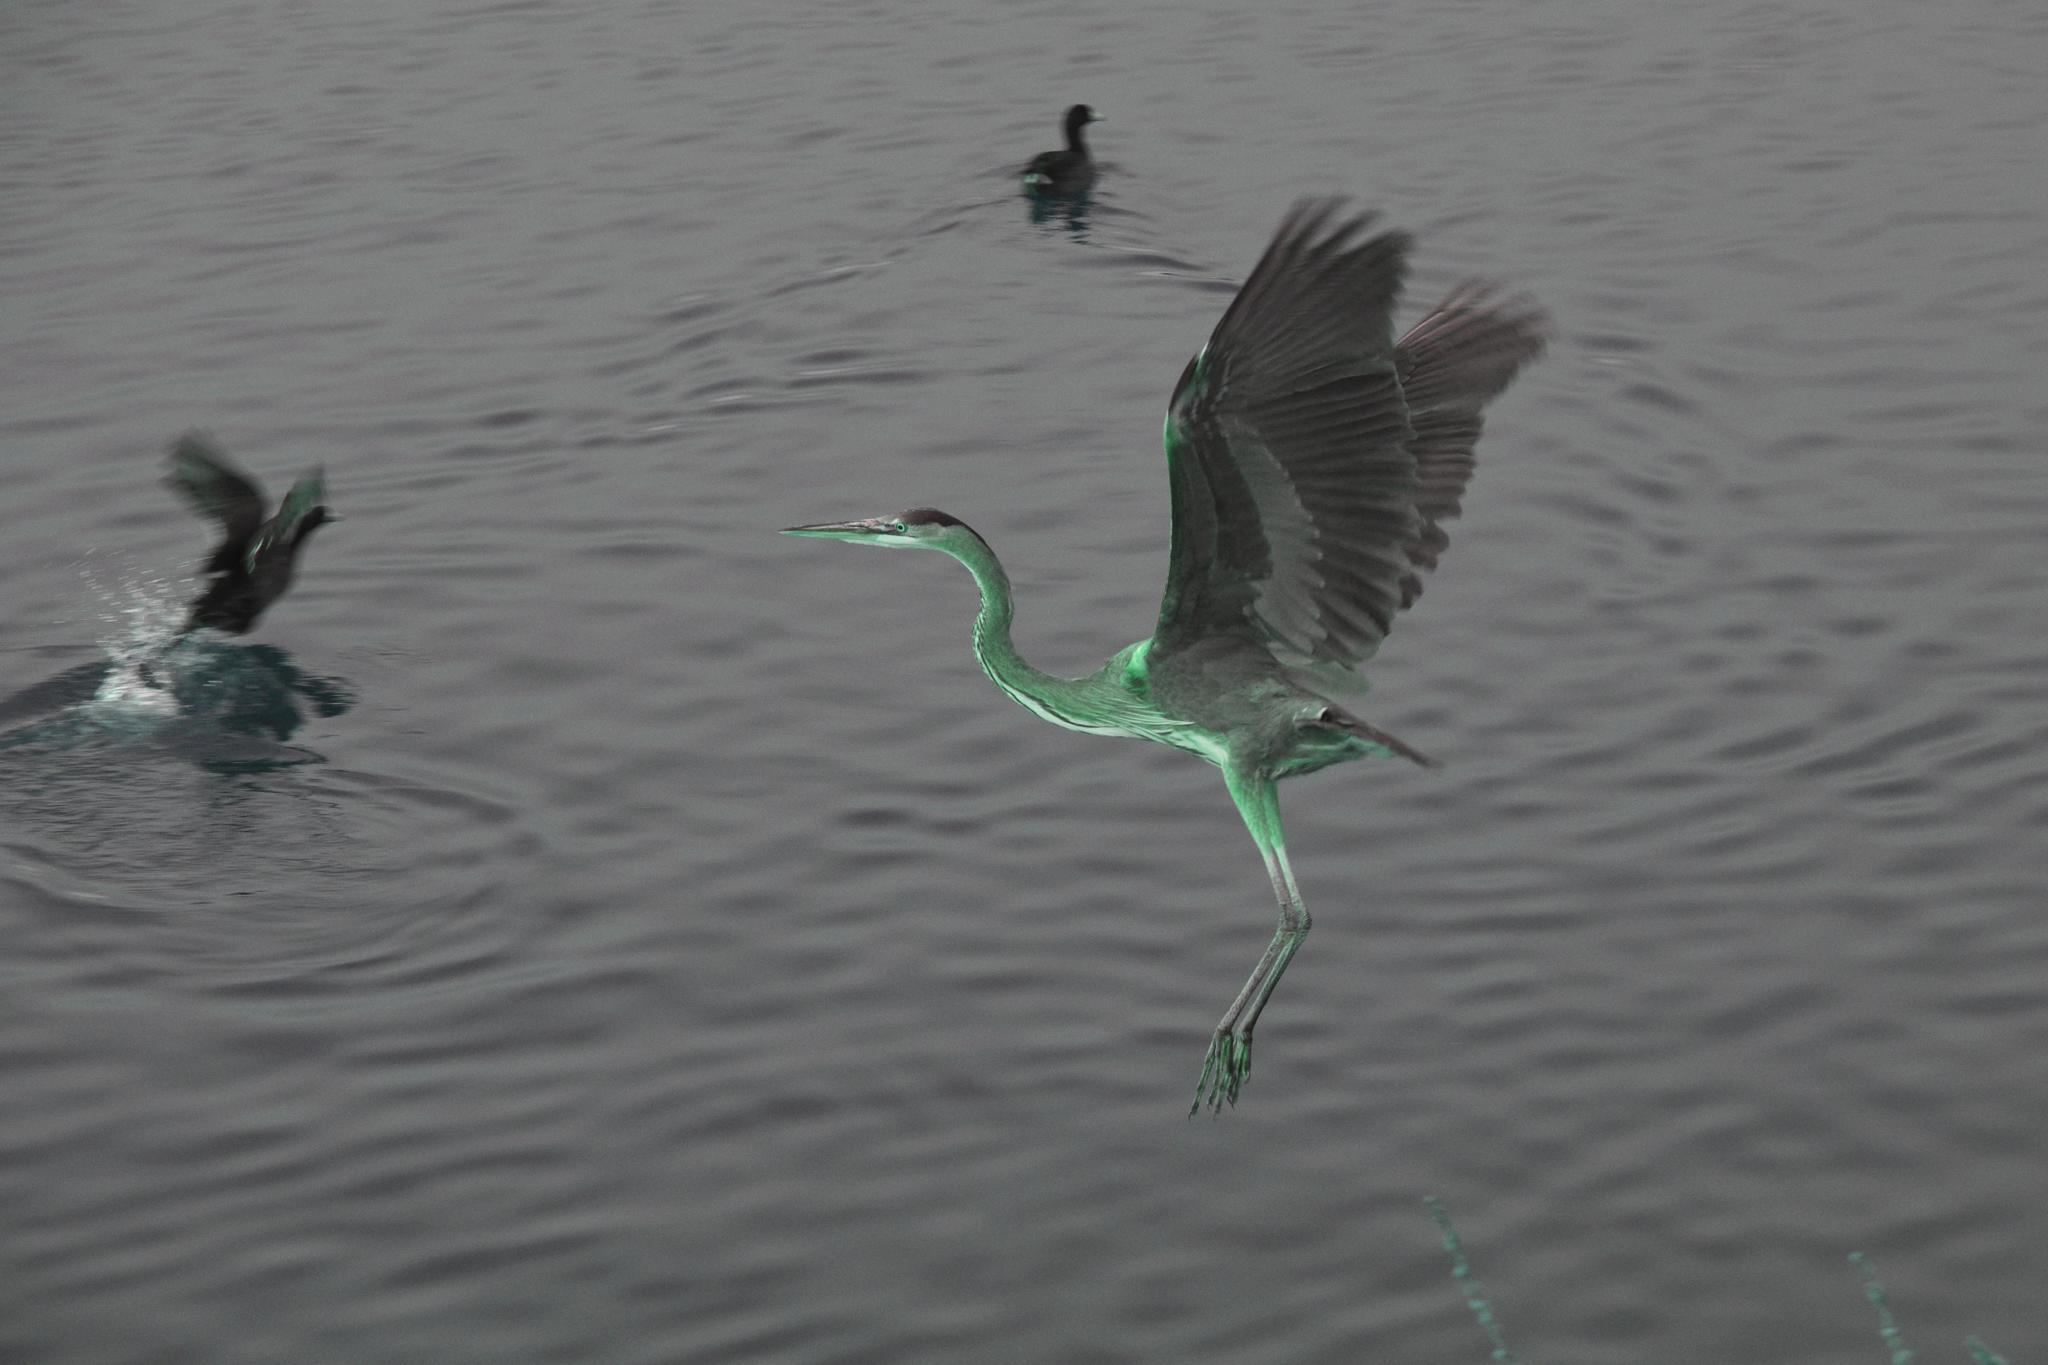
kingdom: Animalia
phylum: Chordata
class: Aves
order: Pelecaniformes
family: Ardeidae
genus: Ardea
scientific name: Ardea herodias
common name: Great blue heron
